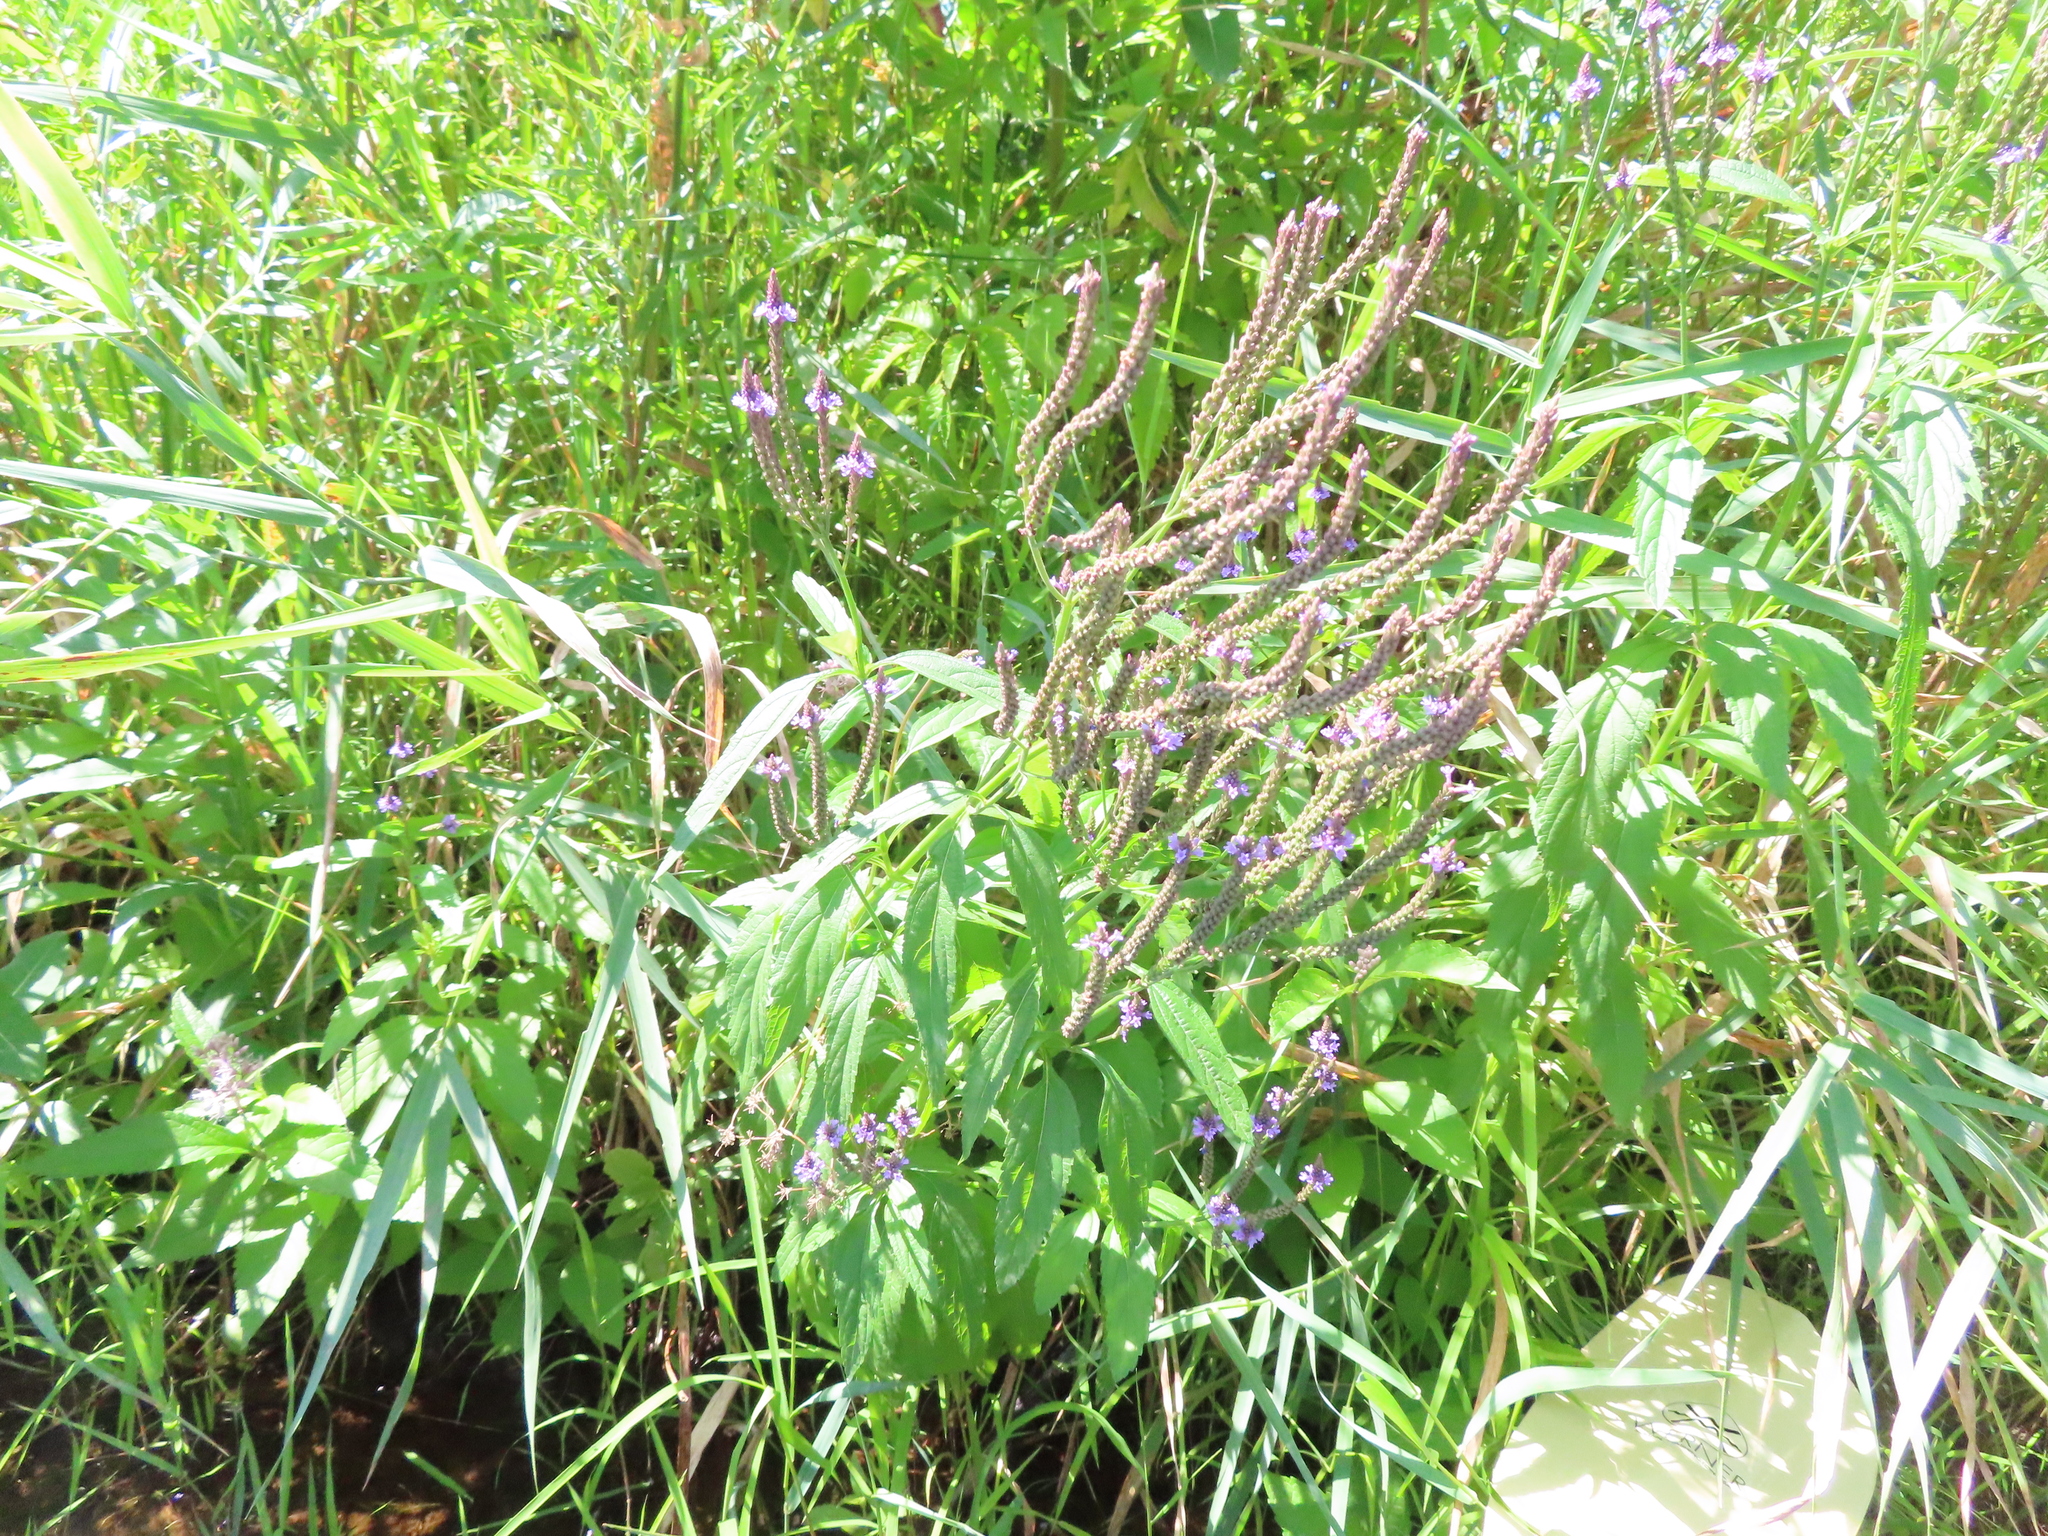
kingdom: Plantae
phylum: Tracheophyta
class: Magnoliopsida
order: Lamiales
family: Verbenaceae
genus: Verbena
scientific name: Verbena hastata
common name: American blue vervain
